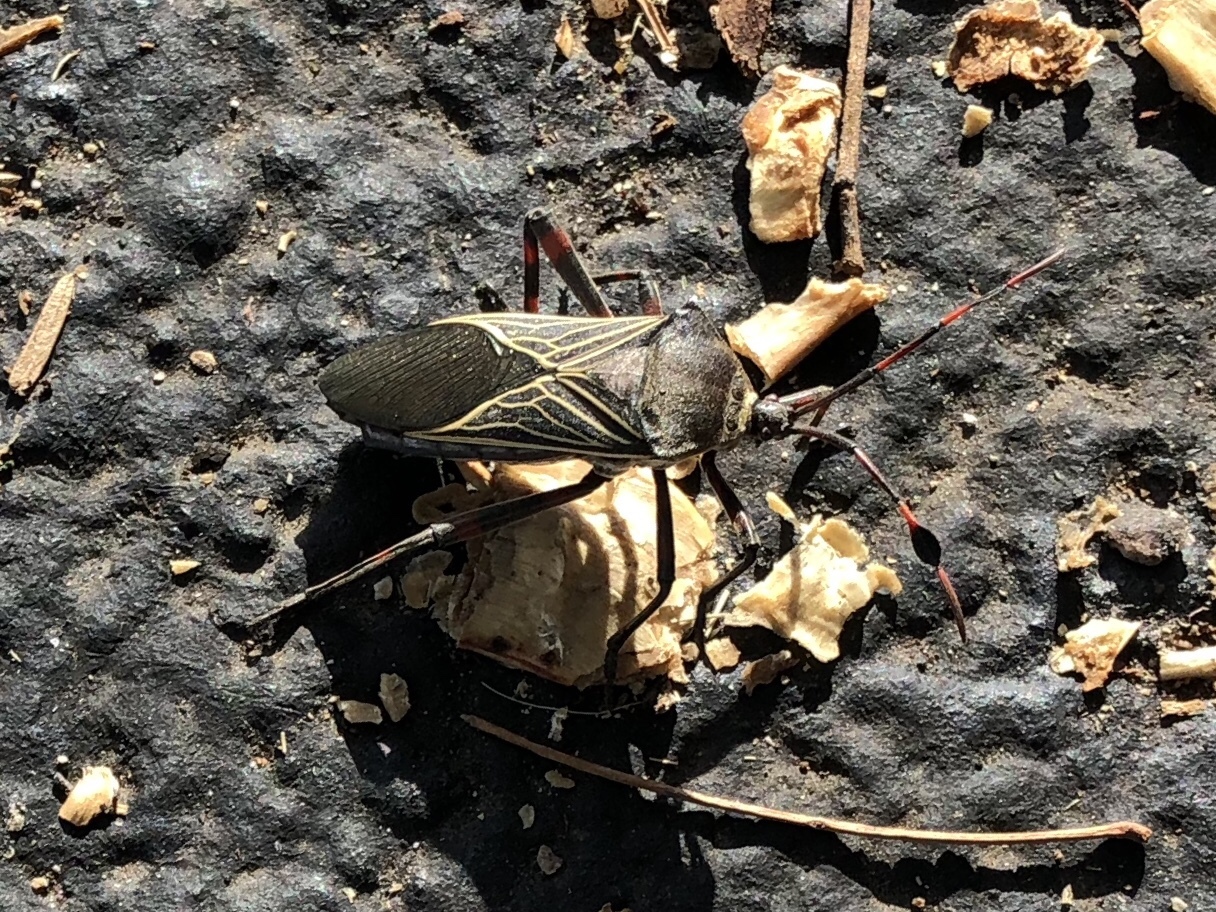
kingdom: Animalia
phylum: Arthropoda
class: Insecta
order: Hemiptera
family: Coreidae
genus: Thasus
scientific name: Thasus neocalifornicus
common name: Giant mesquite bug
